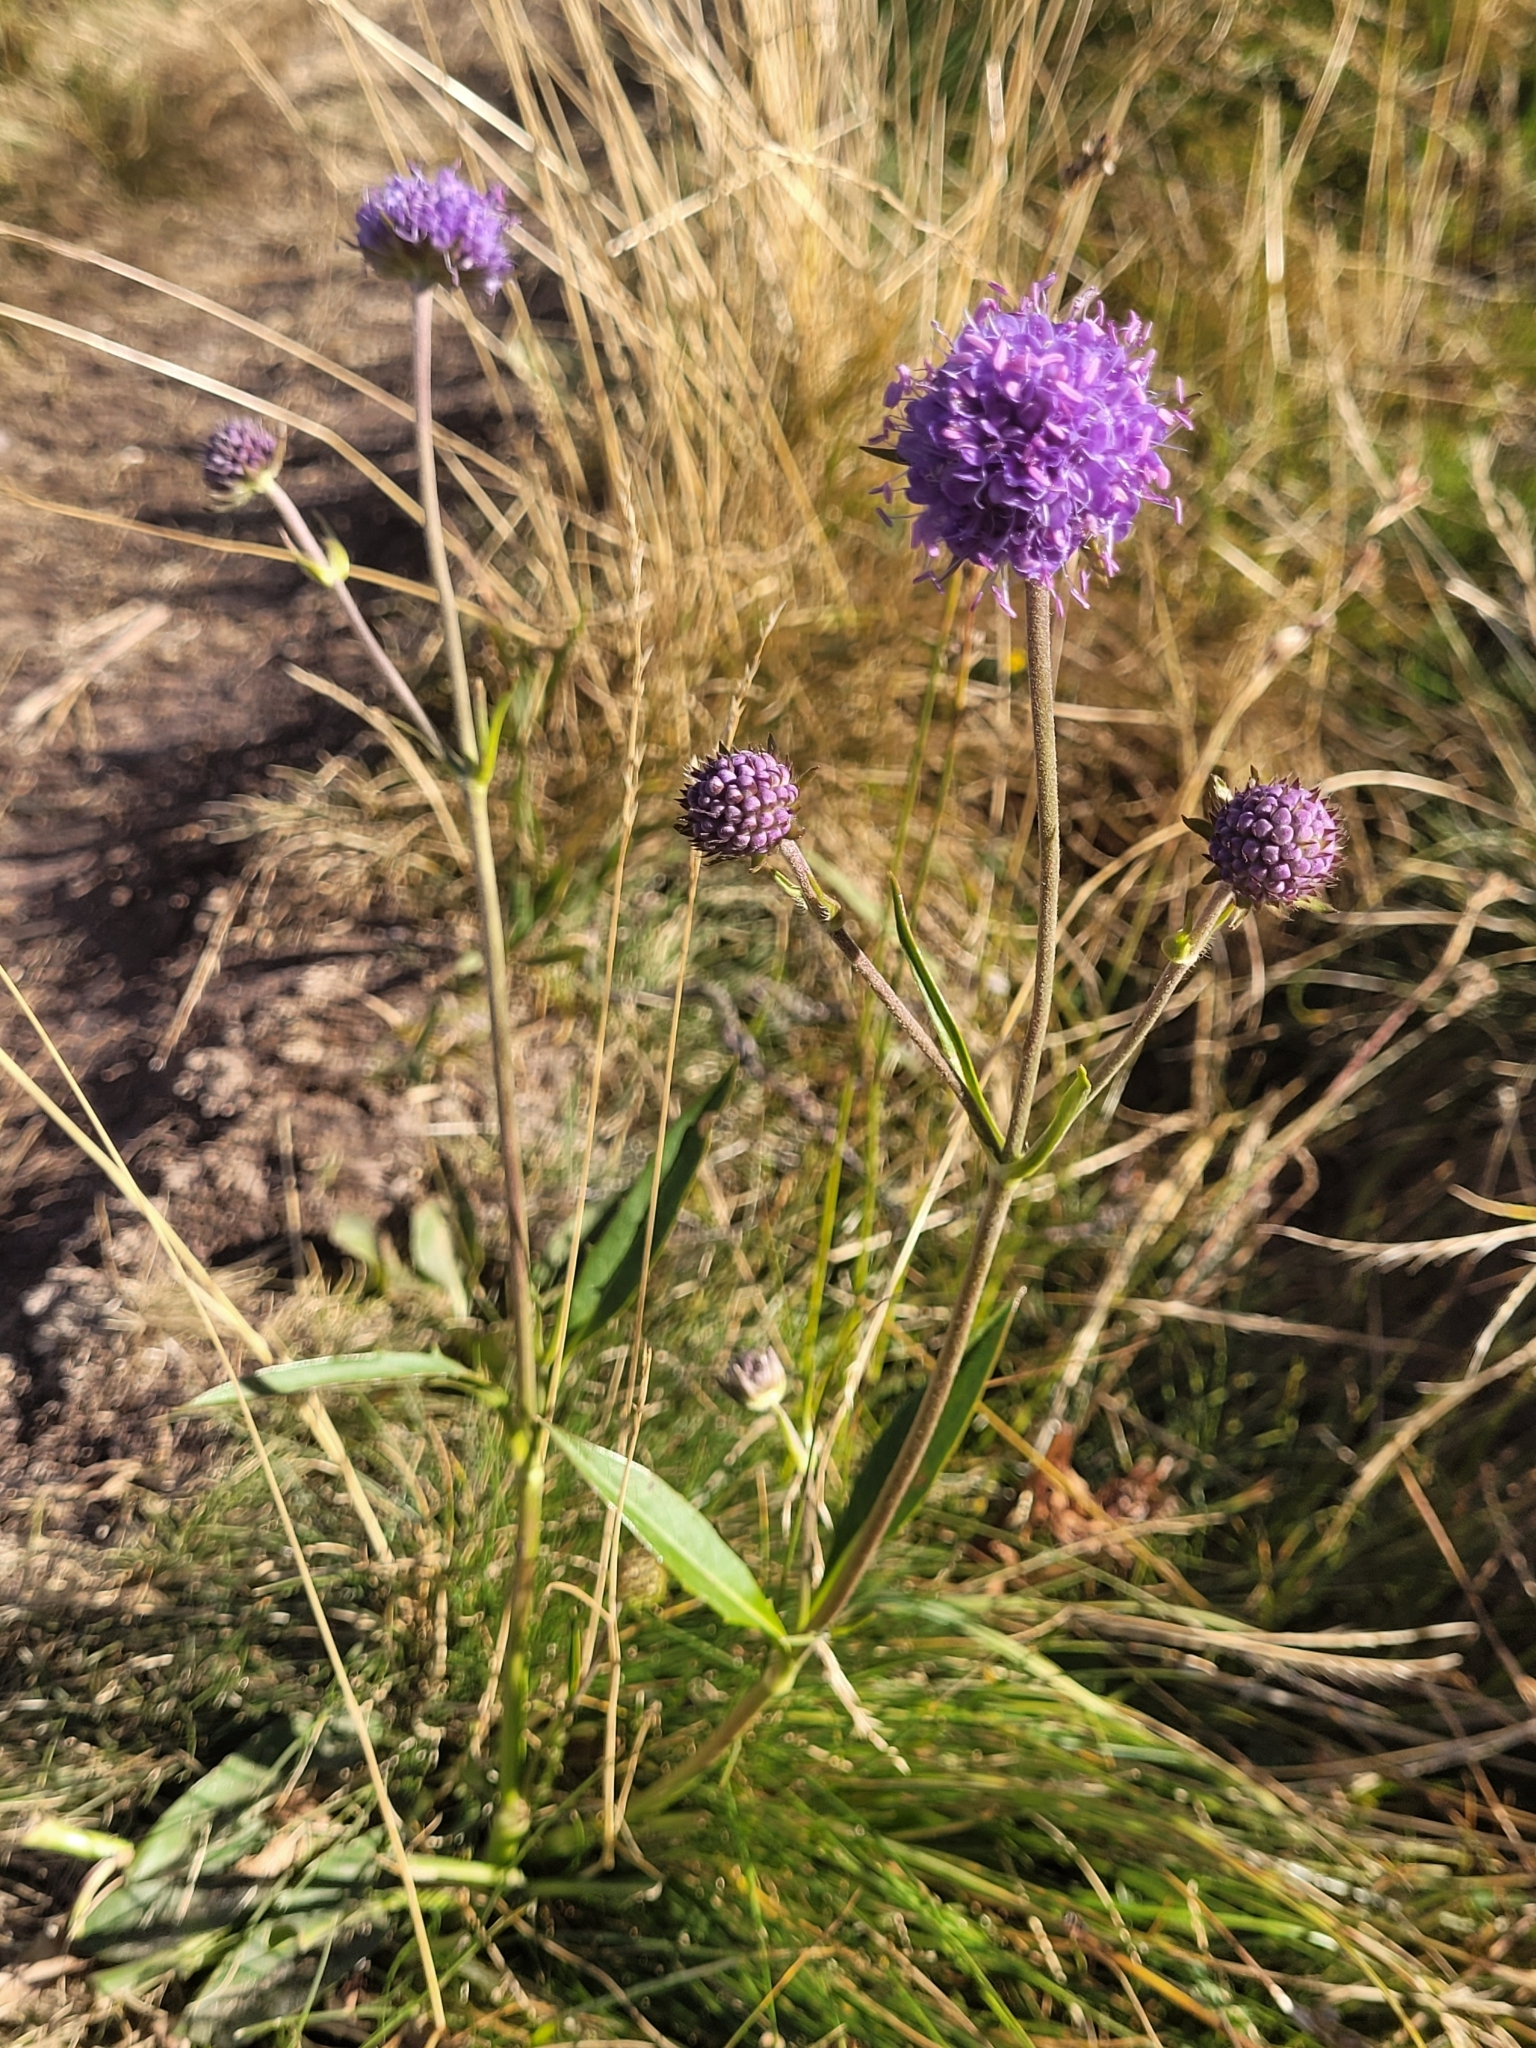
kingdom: Plantae
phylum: Tracheophyta
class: Magnoliopsida
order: Dipsacales
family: Caprifoliaceae
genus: Succisa
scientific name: Succisa pratensis
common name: Devil's-bit
